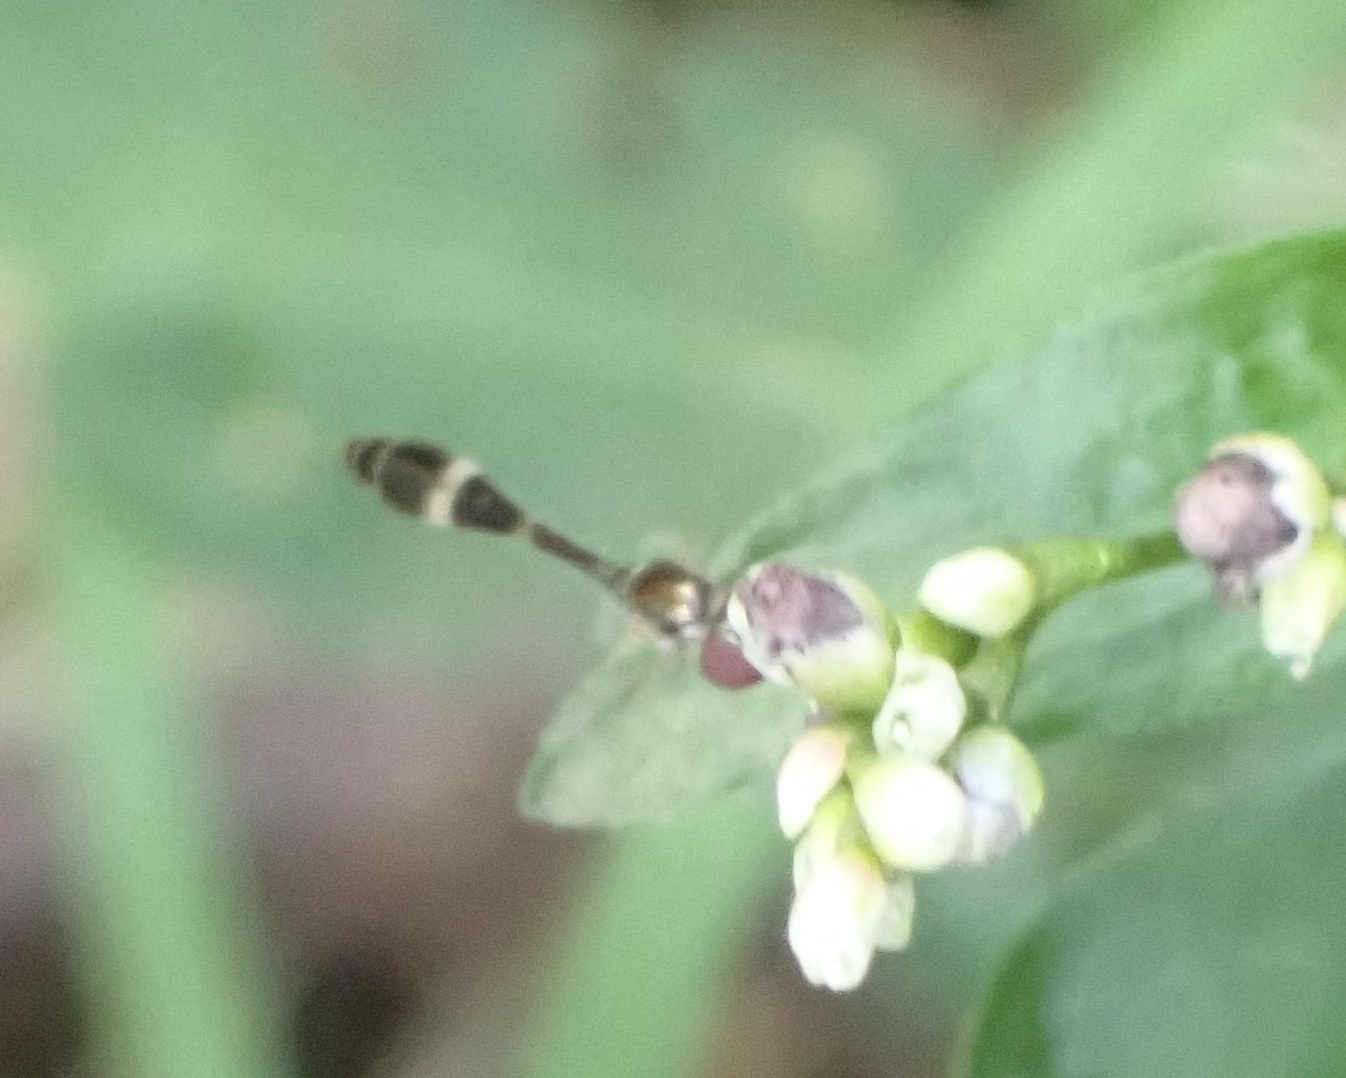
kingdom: Animalia
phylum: Arthropoda
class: Insecta
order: Diptera
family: Syrphidae
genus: Baccha
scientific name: Baccha elongata
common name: Common dainty
